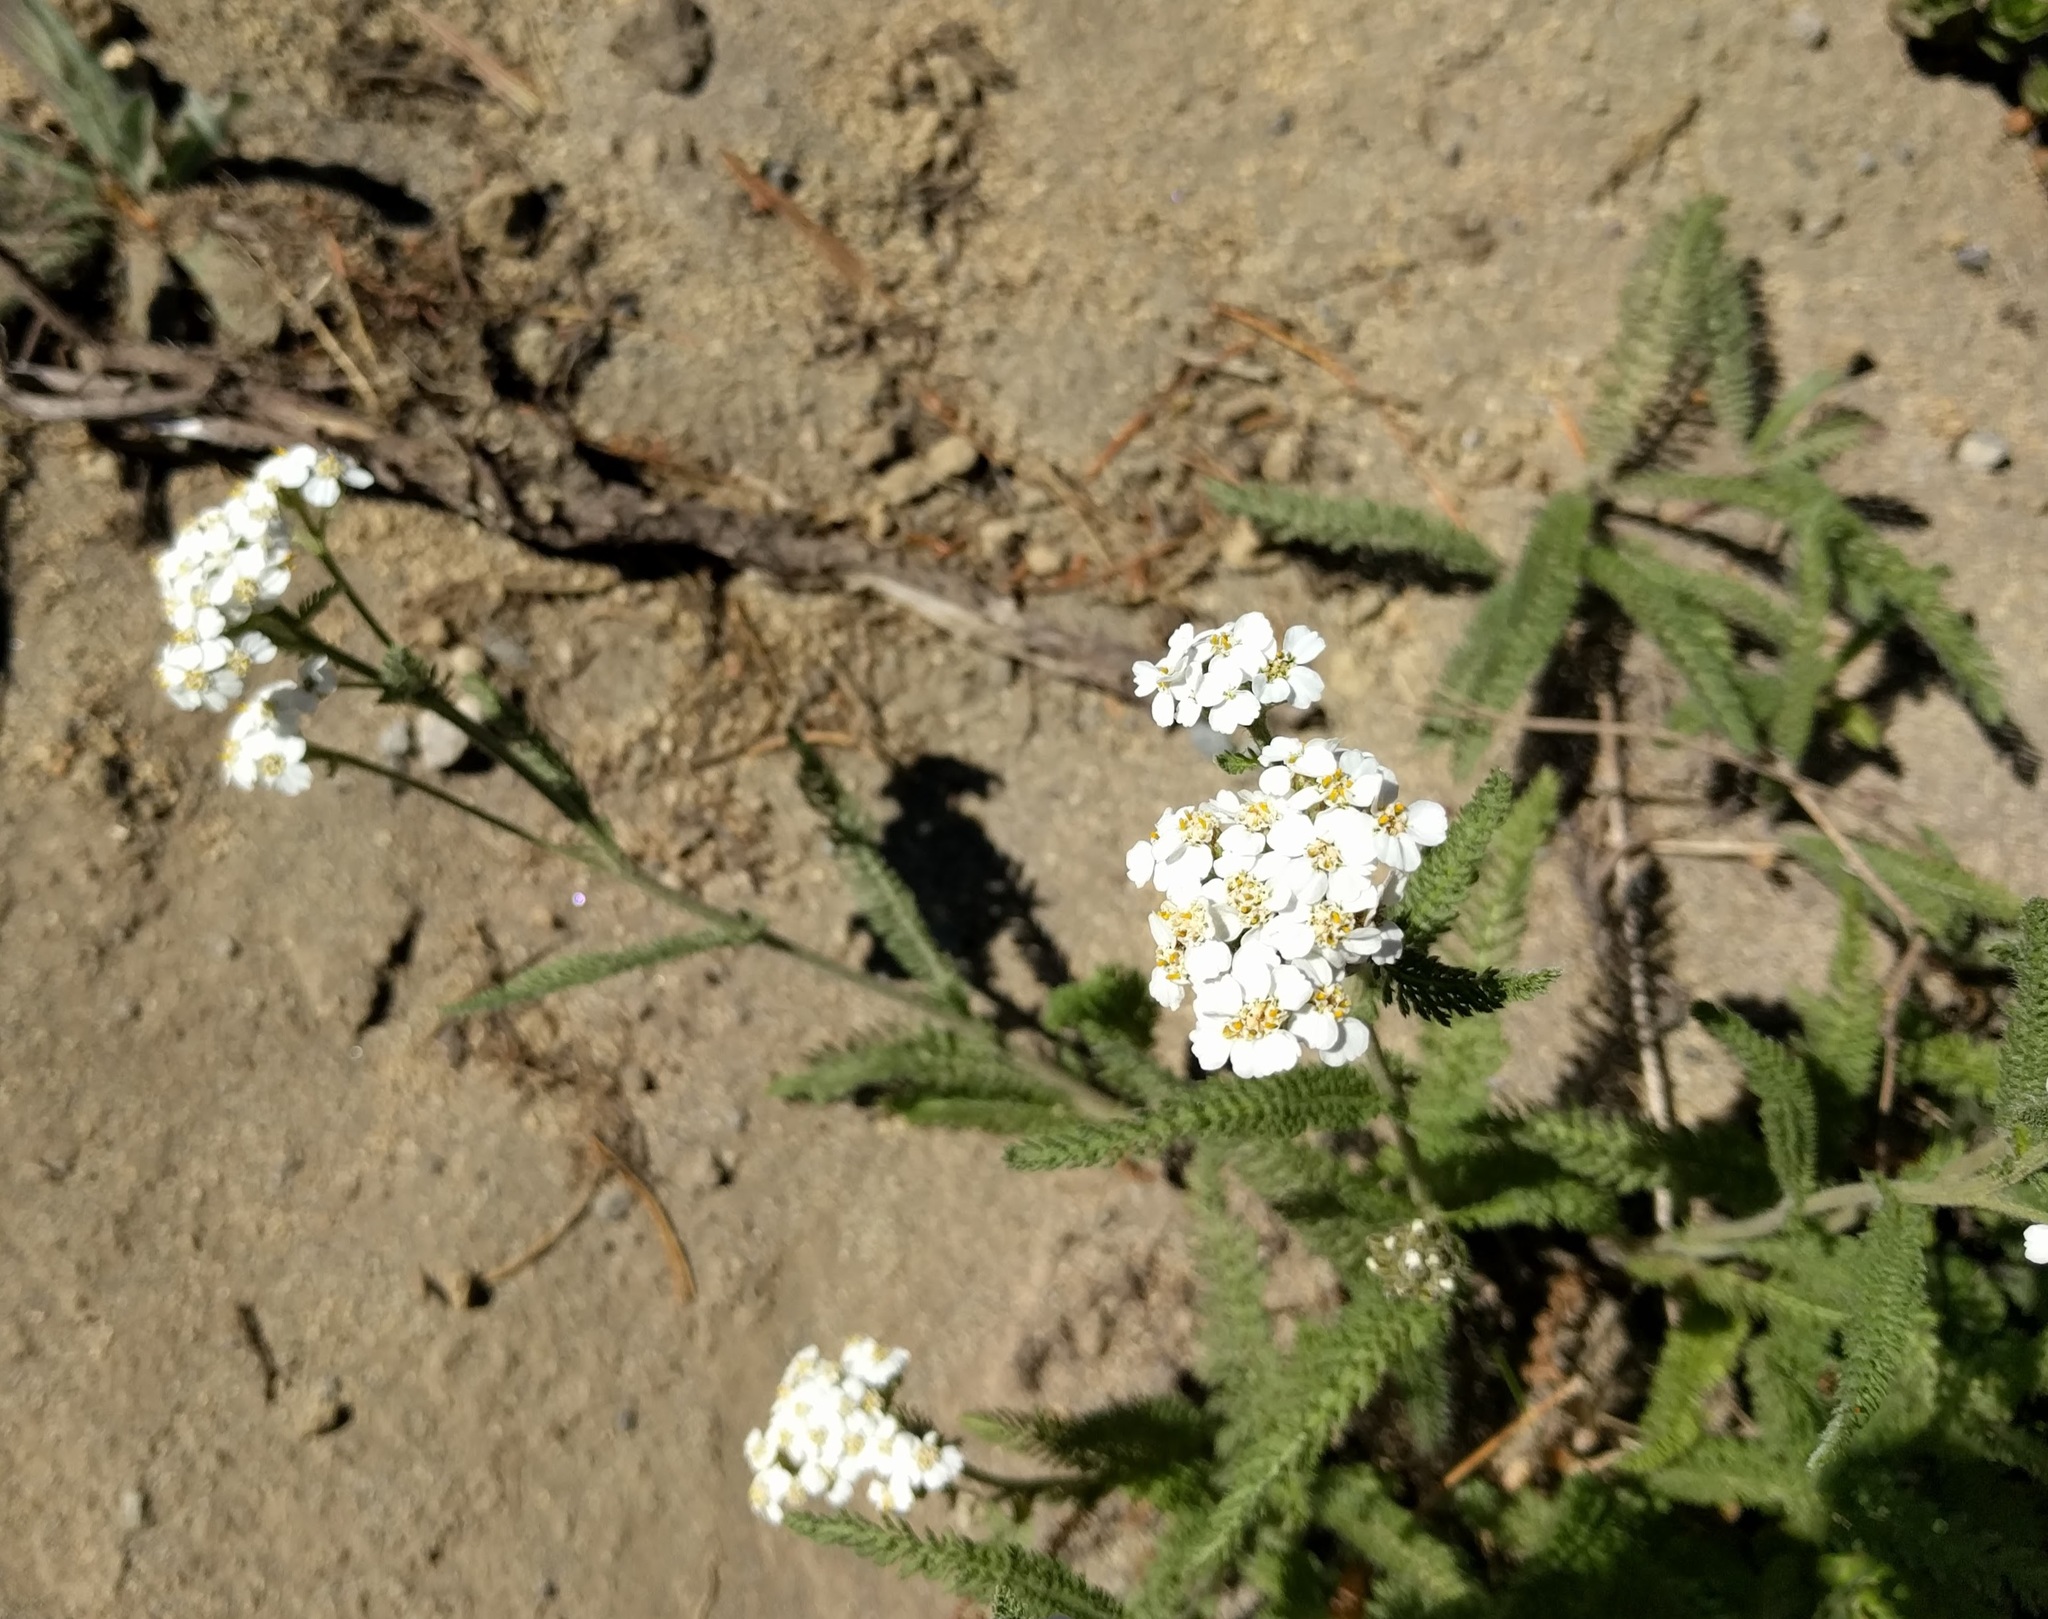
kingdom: Plantae
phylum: Tracheophyta
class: Magnoliopsida
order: Asterales
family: Asteraceae
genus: Achillea
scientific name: Achillea millefolium
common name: Yarrow
